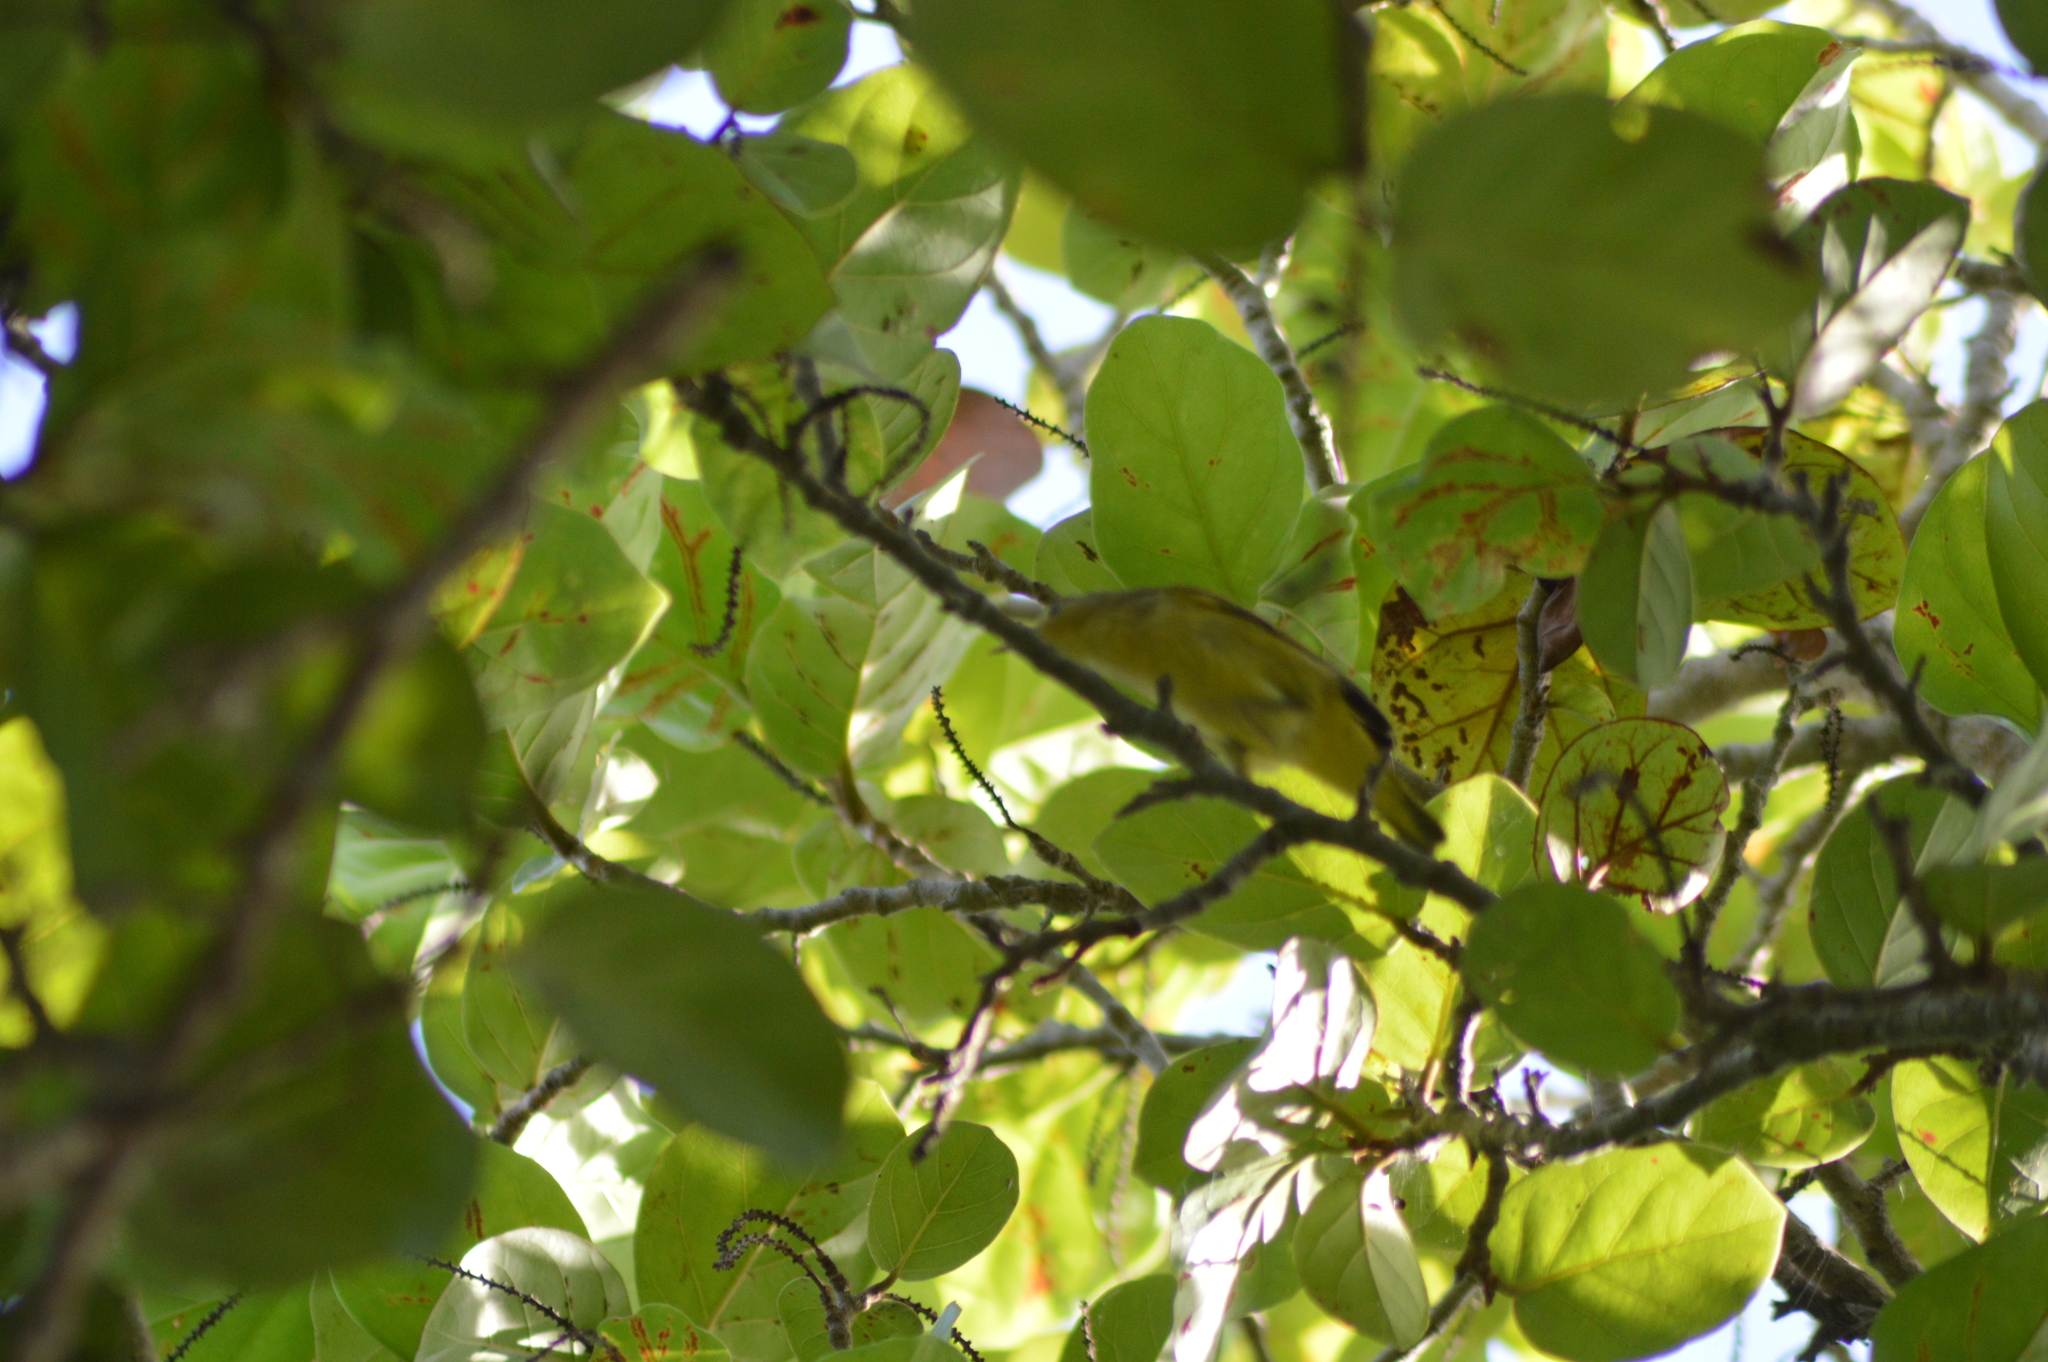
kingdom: Animalia
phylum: Chordata
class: Aves
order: Passeriformes
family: Parulidae
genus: Setophaga
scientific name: Setophaga petechia
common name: Yellow warbler
